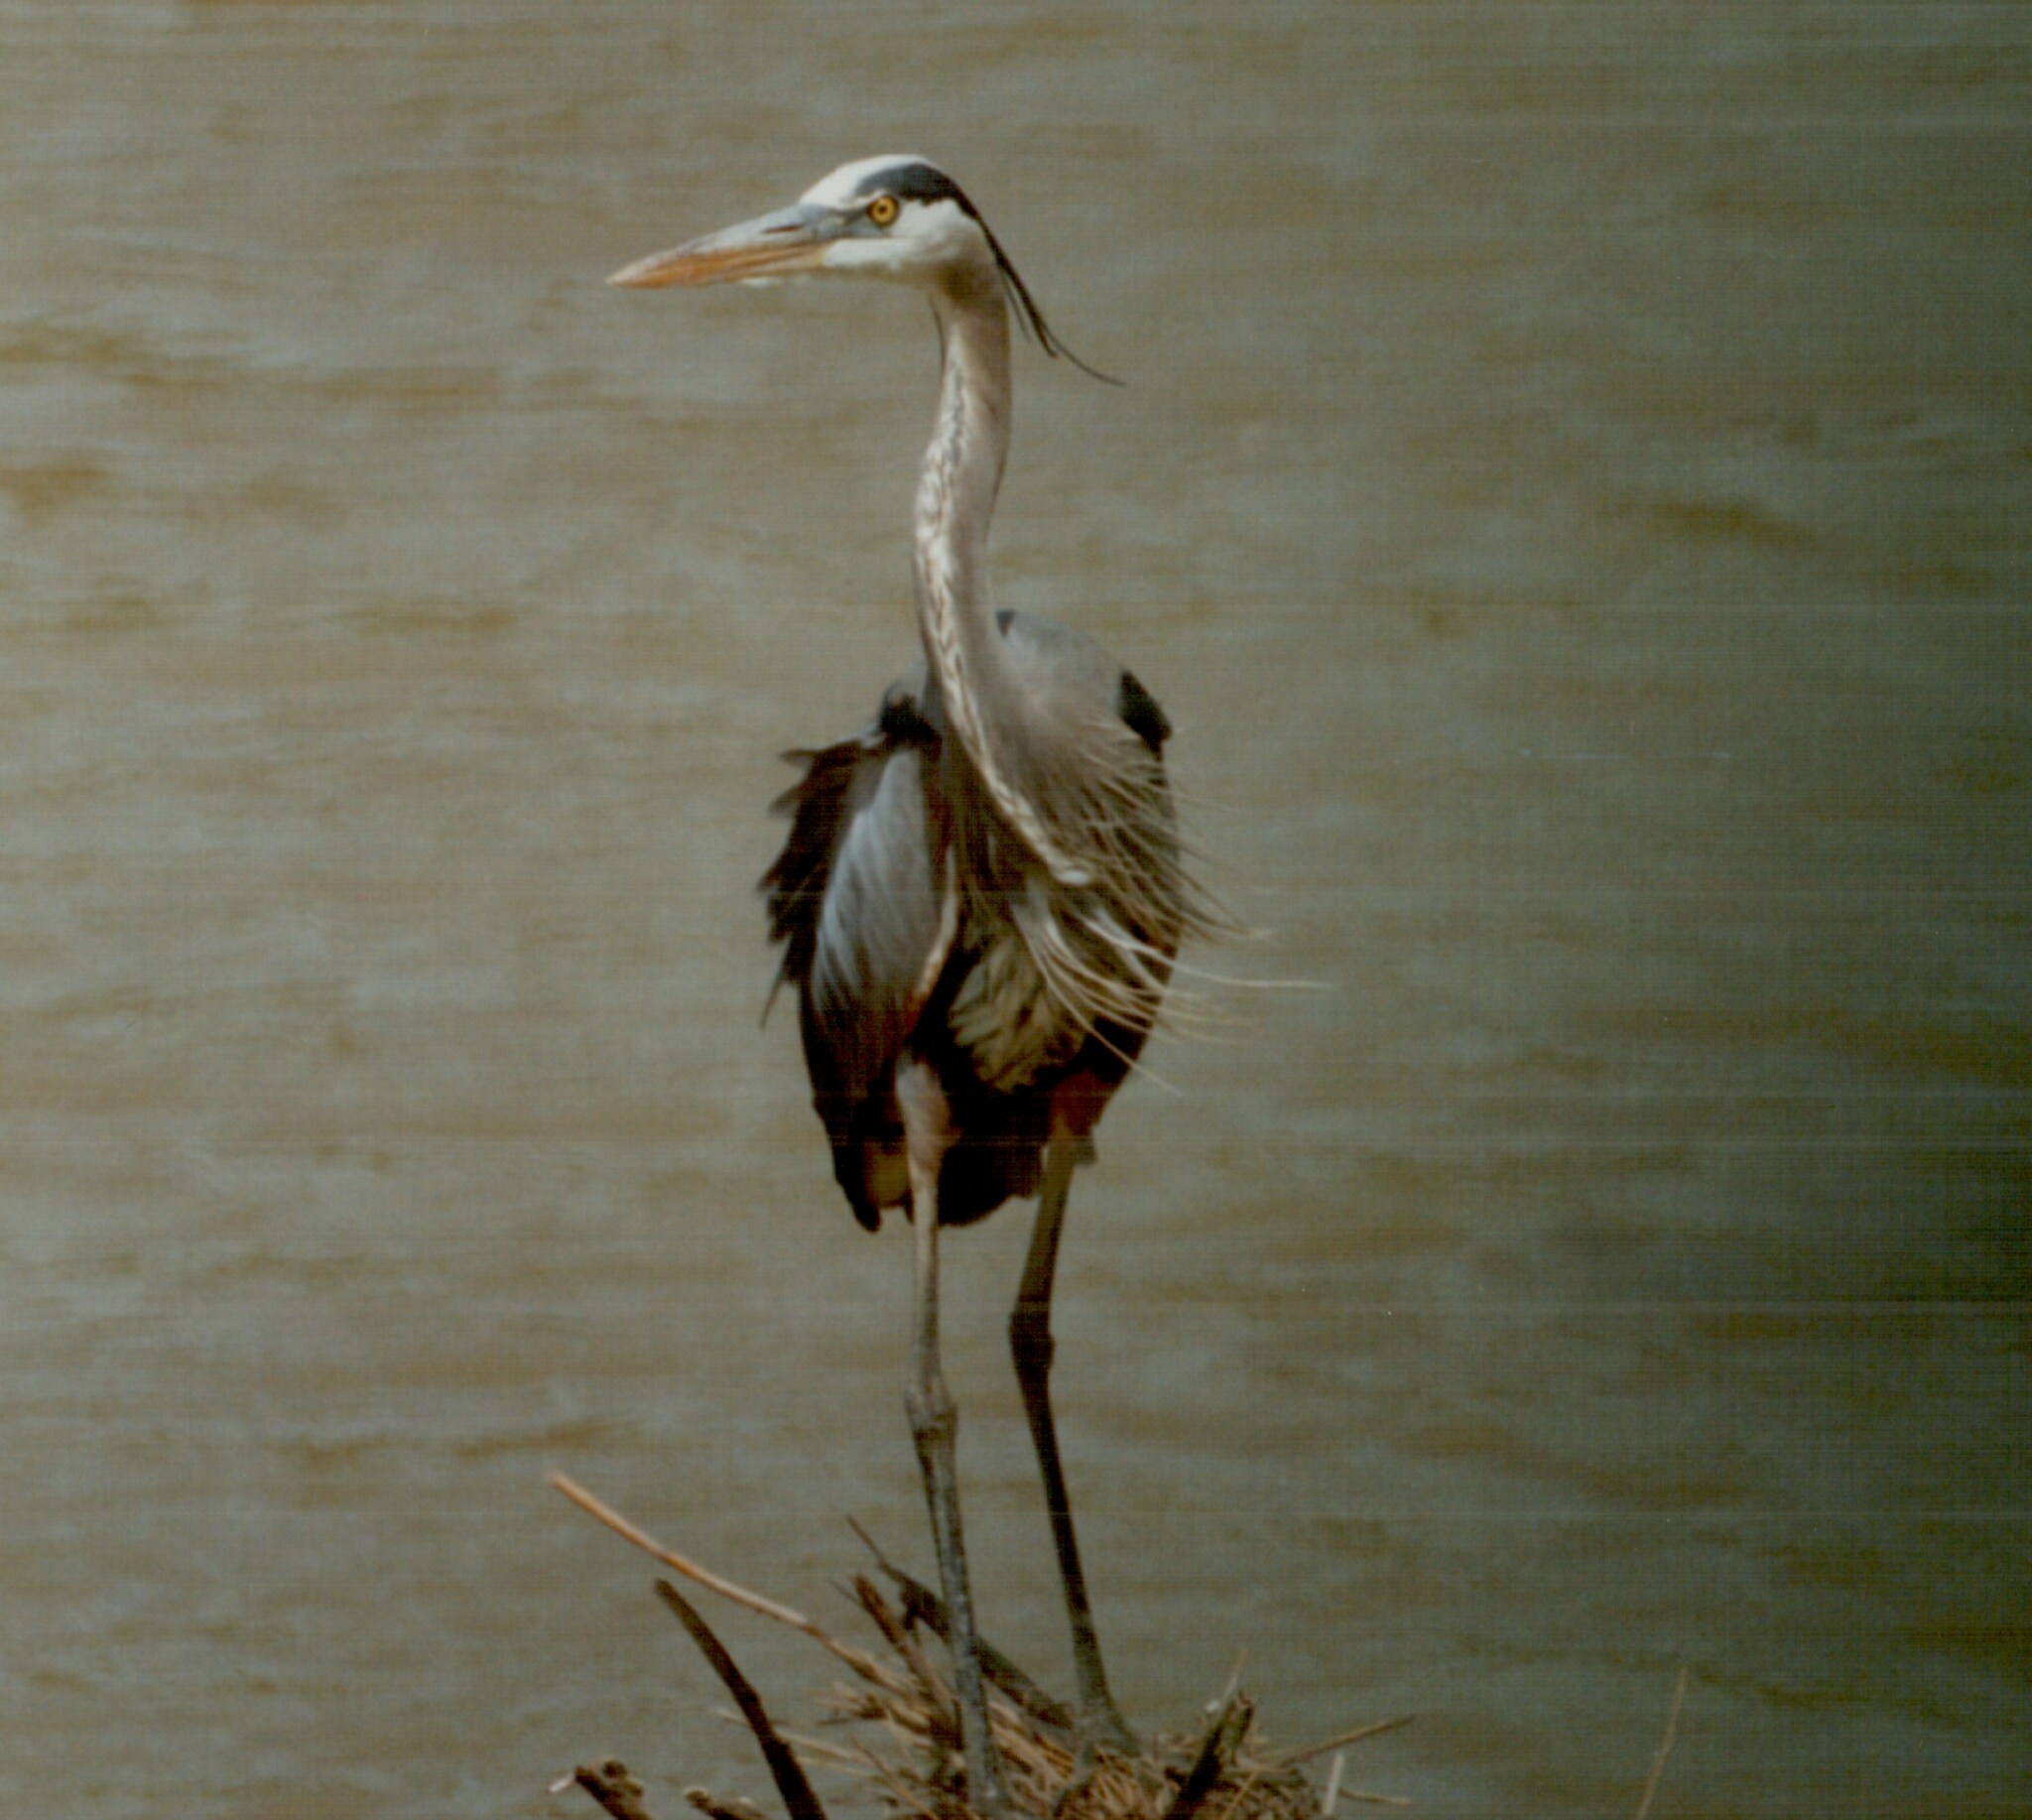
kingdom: Animalia
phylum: Chordata
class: Aves
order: Pelecaniformes
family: Ardeidae
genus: Ardea
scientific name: Ardea herodias
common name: Great blue heron
